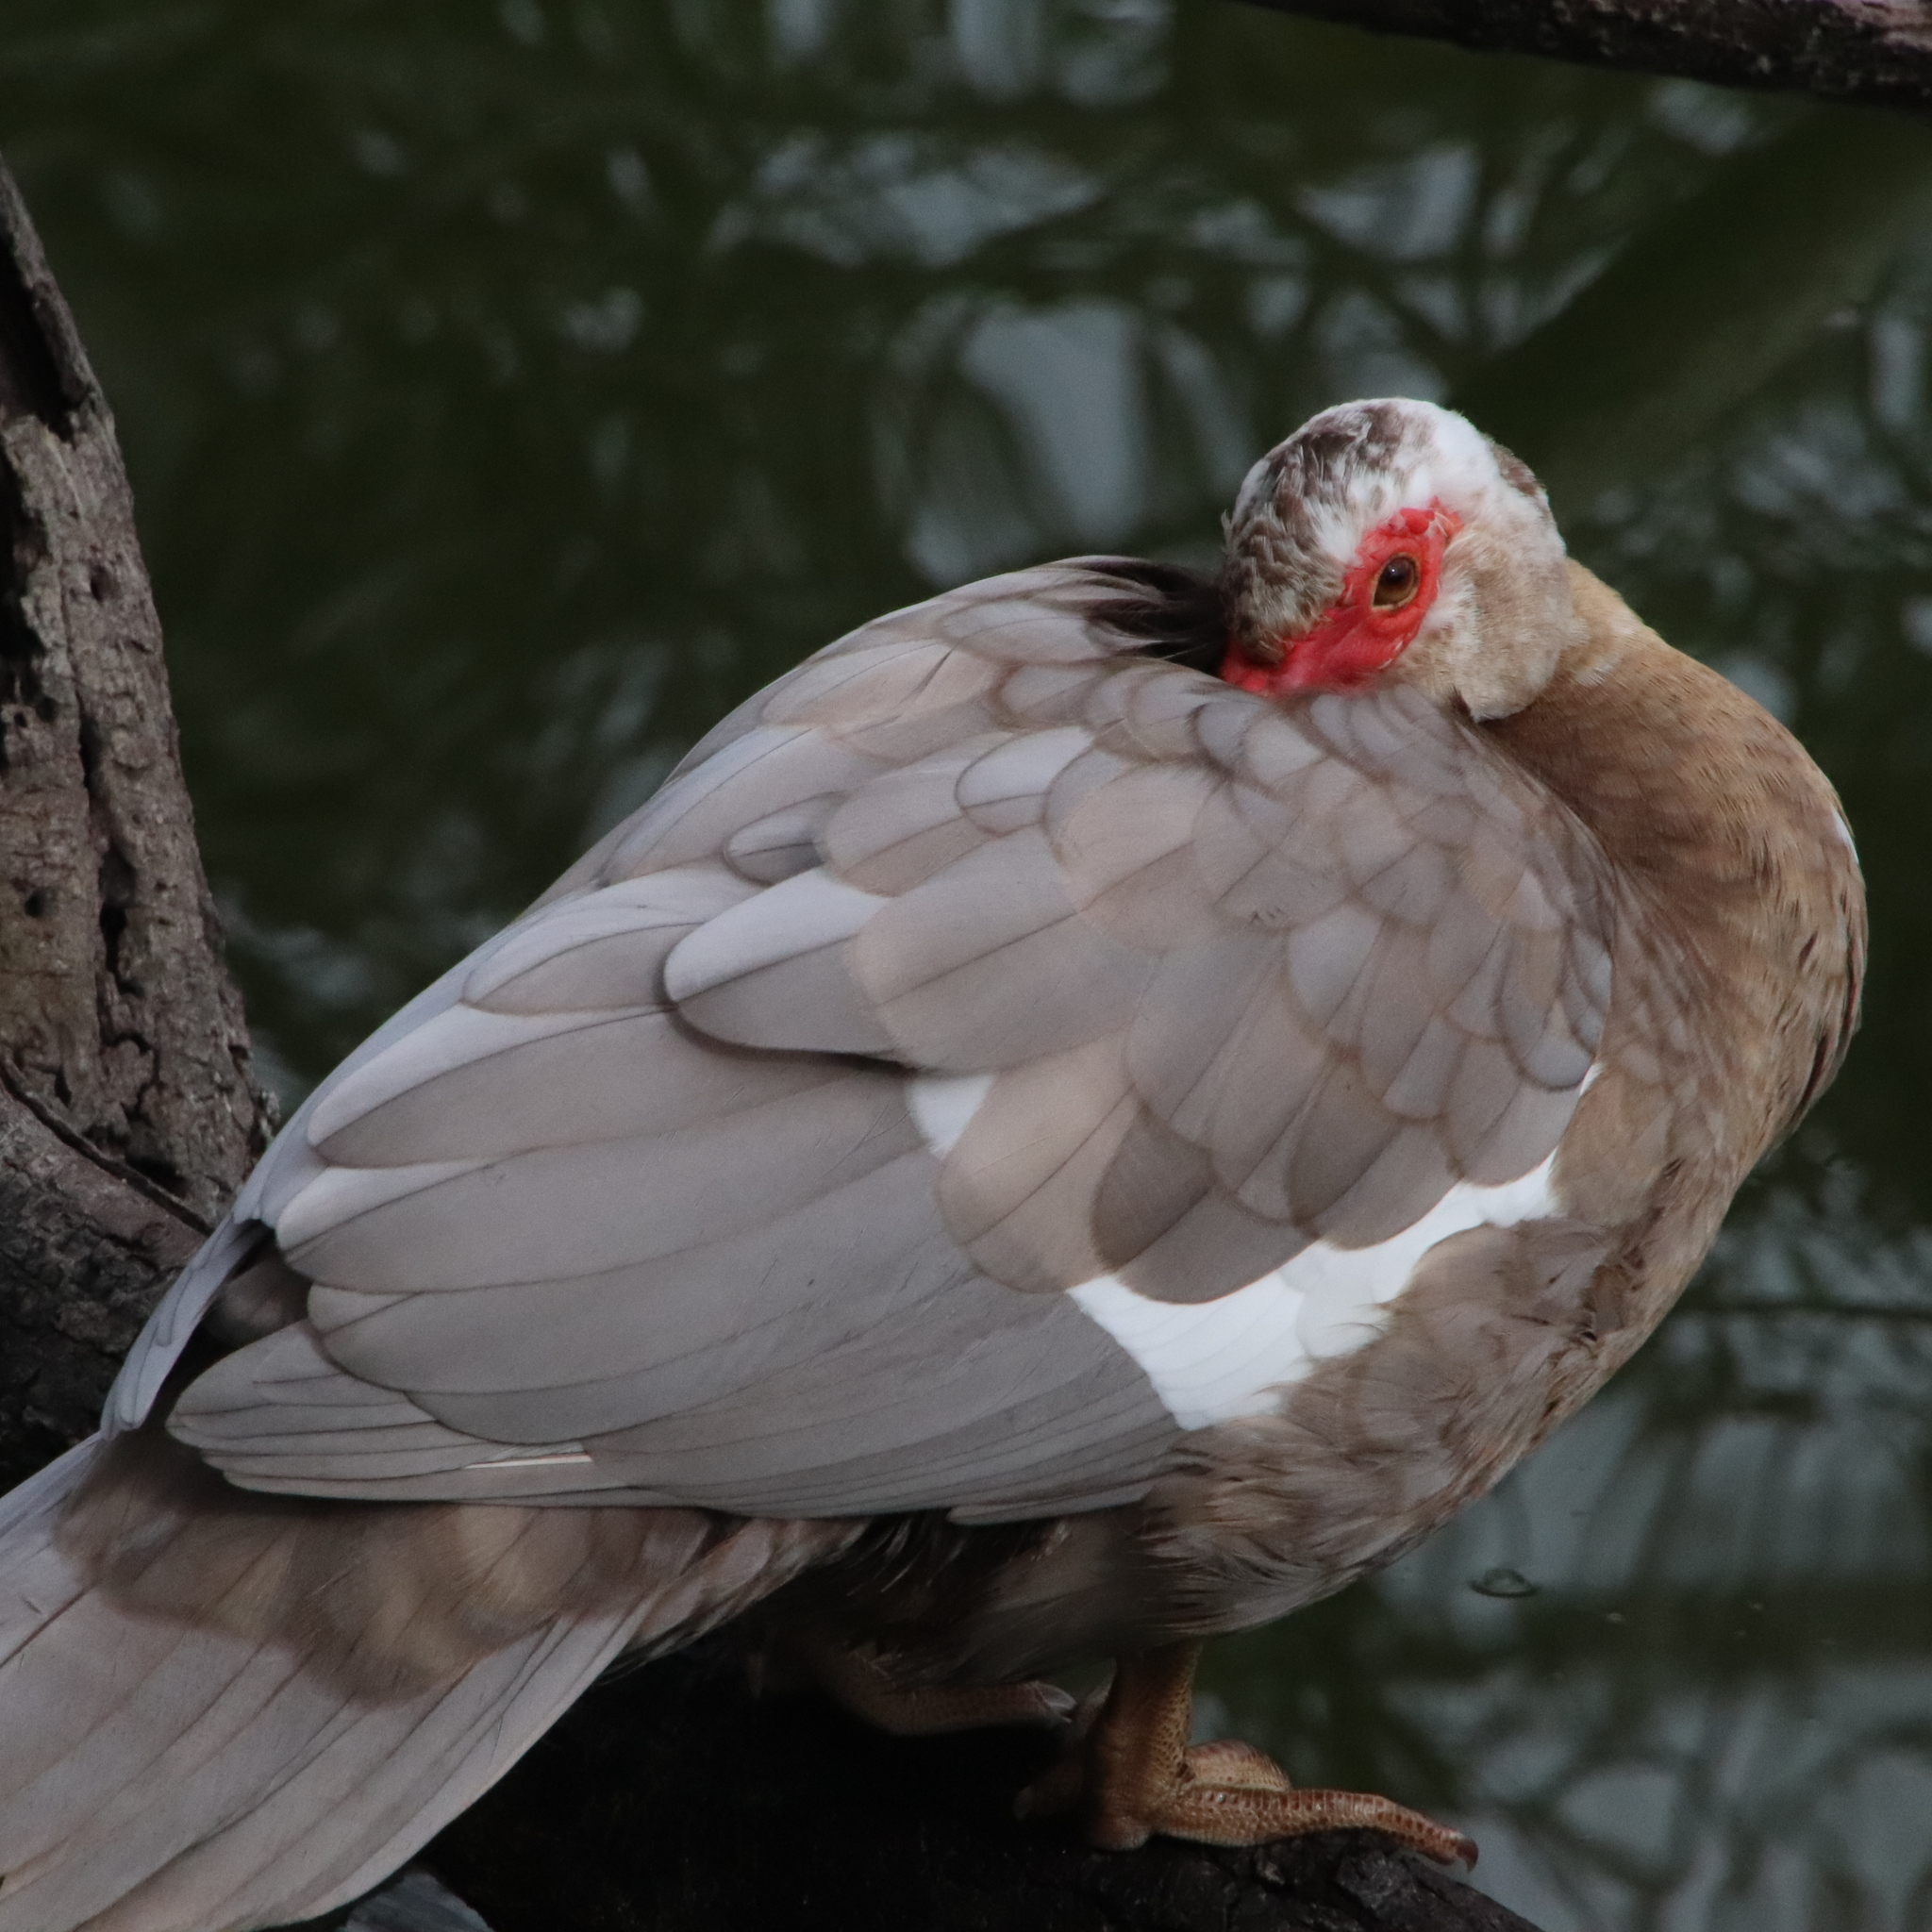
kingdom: Animalia
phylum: Chordata
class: Aves
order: Anseriformes
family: Anatidae
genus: Cairina
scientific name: Cairina moschata
